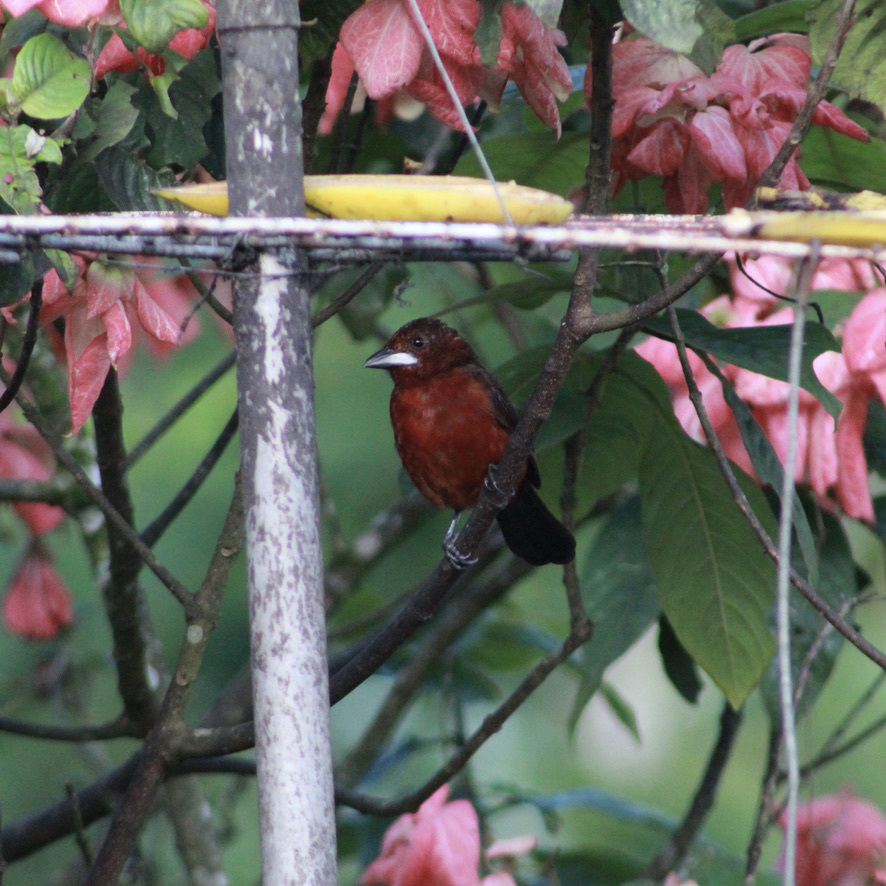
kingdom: Animalia
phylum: Chordata
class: Aves
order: Passeriformes
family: Thraupidae
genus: Ramphocelus
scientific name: Ramphocelus carbo
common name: Silver-beaked tanager
